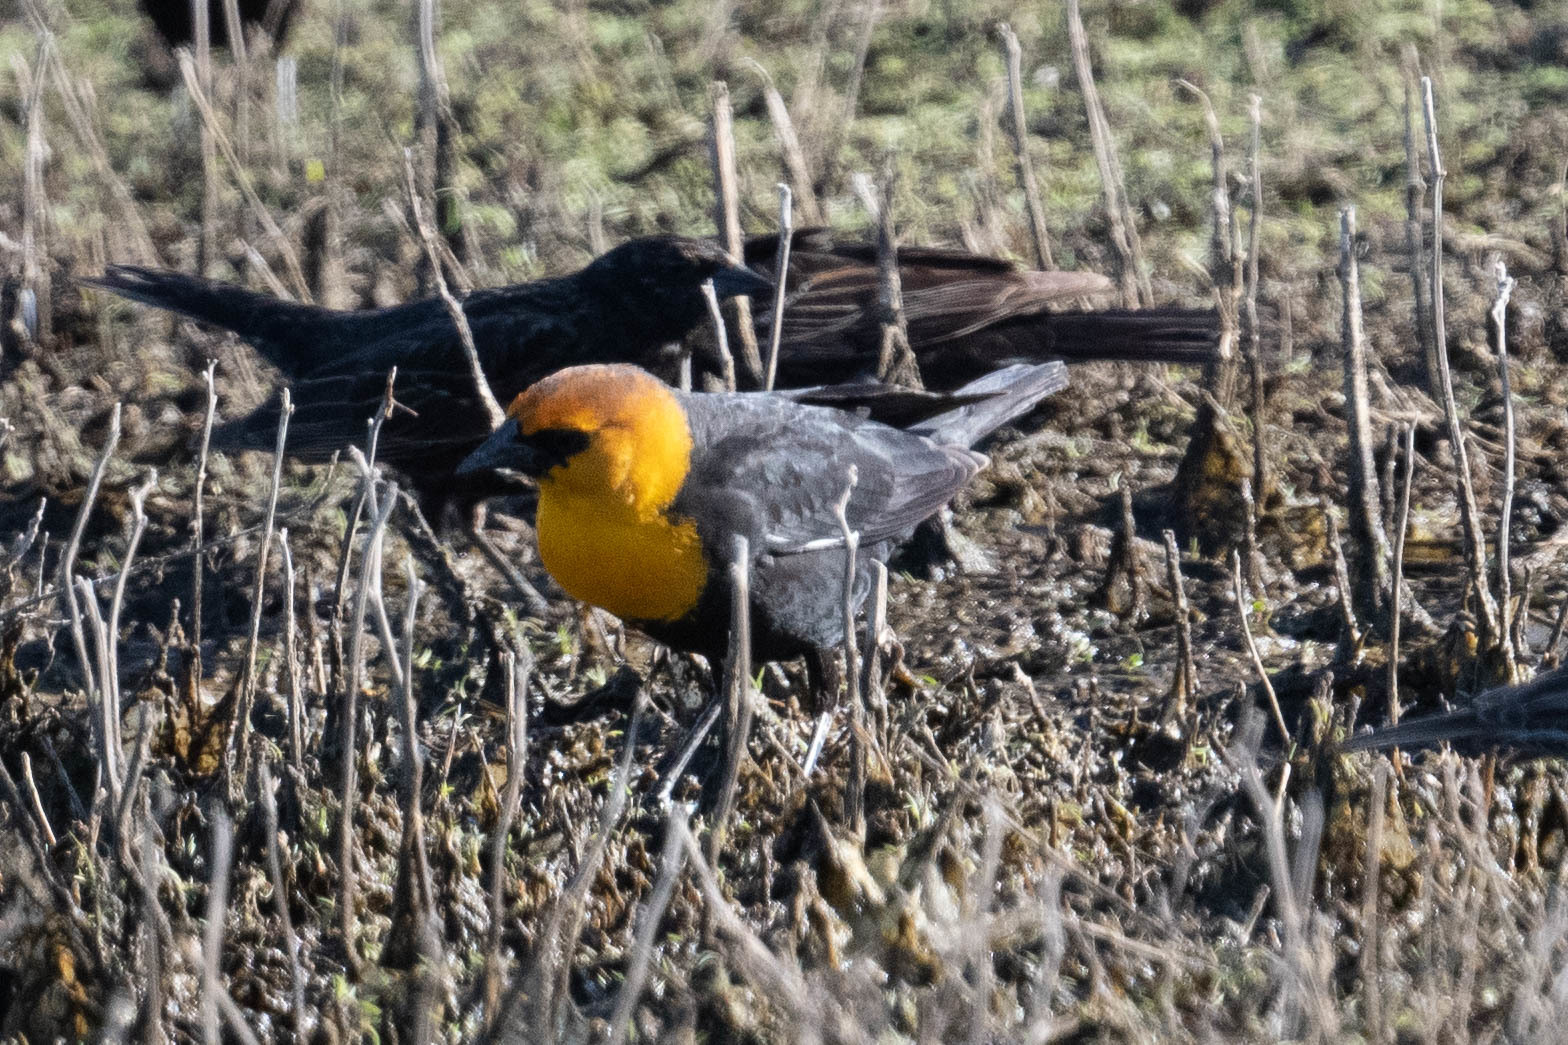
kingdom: Animalia
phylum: Chordata
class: Aves
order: Passeriformes
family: Icteridae
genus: Xanthocephalus
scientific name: Xanthocephalus xanthocephalus
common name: Yellow-headed blackbird
